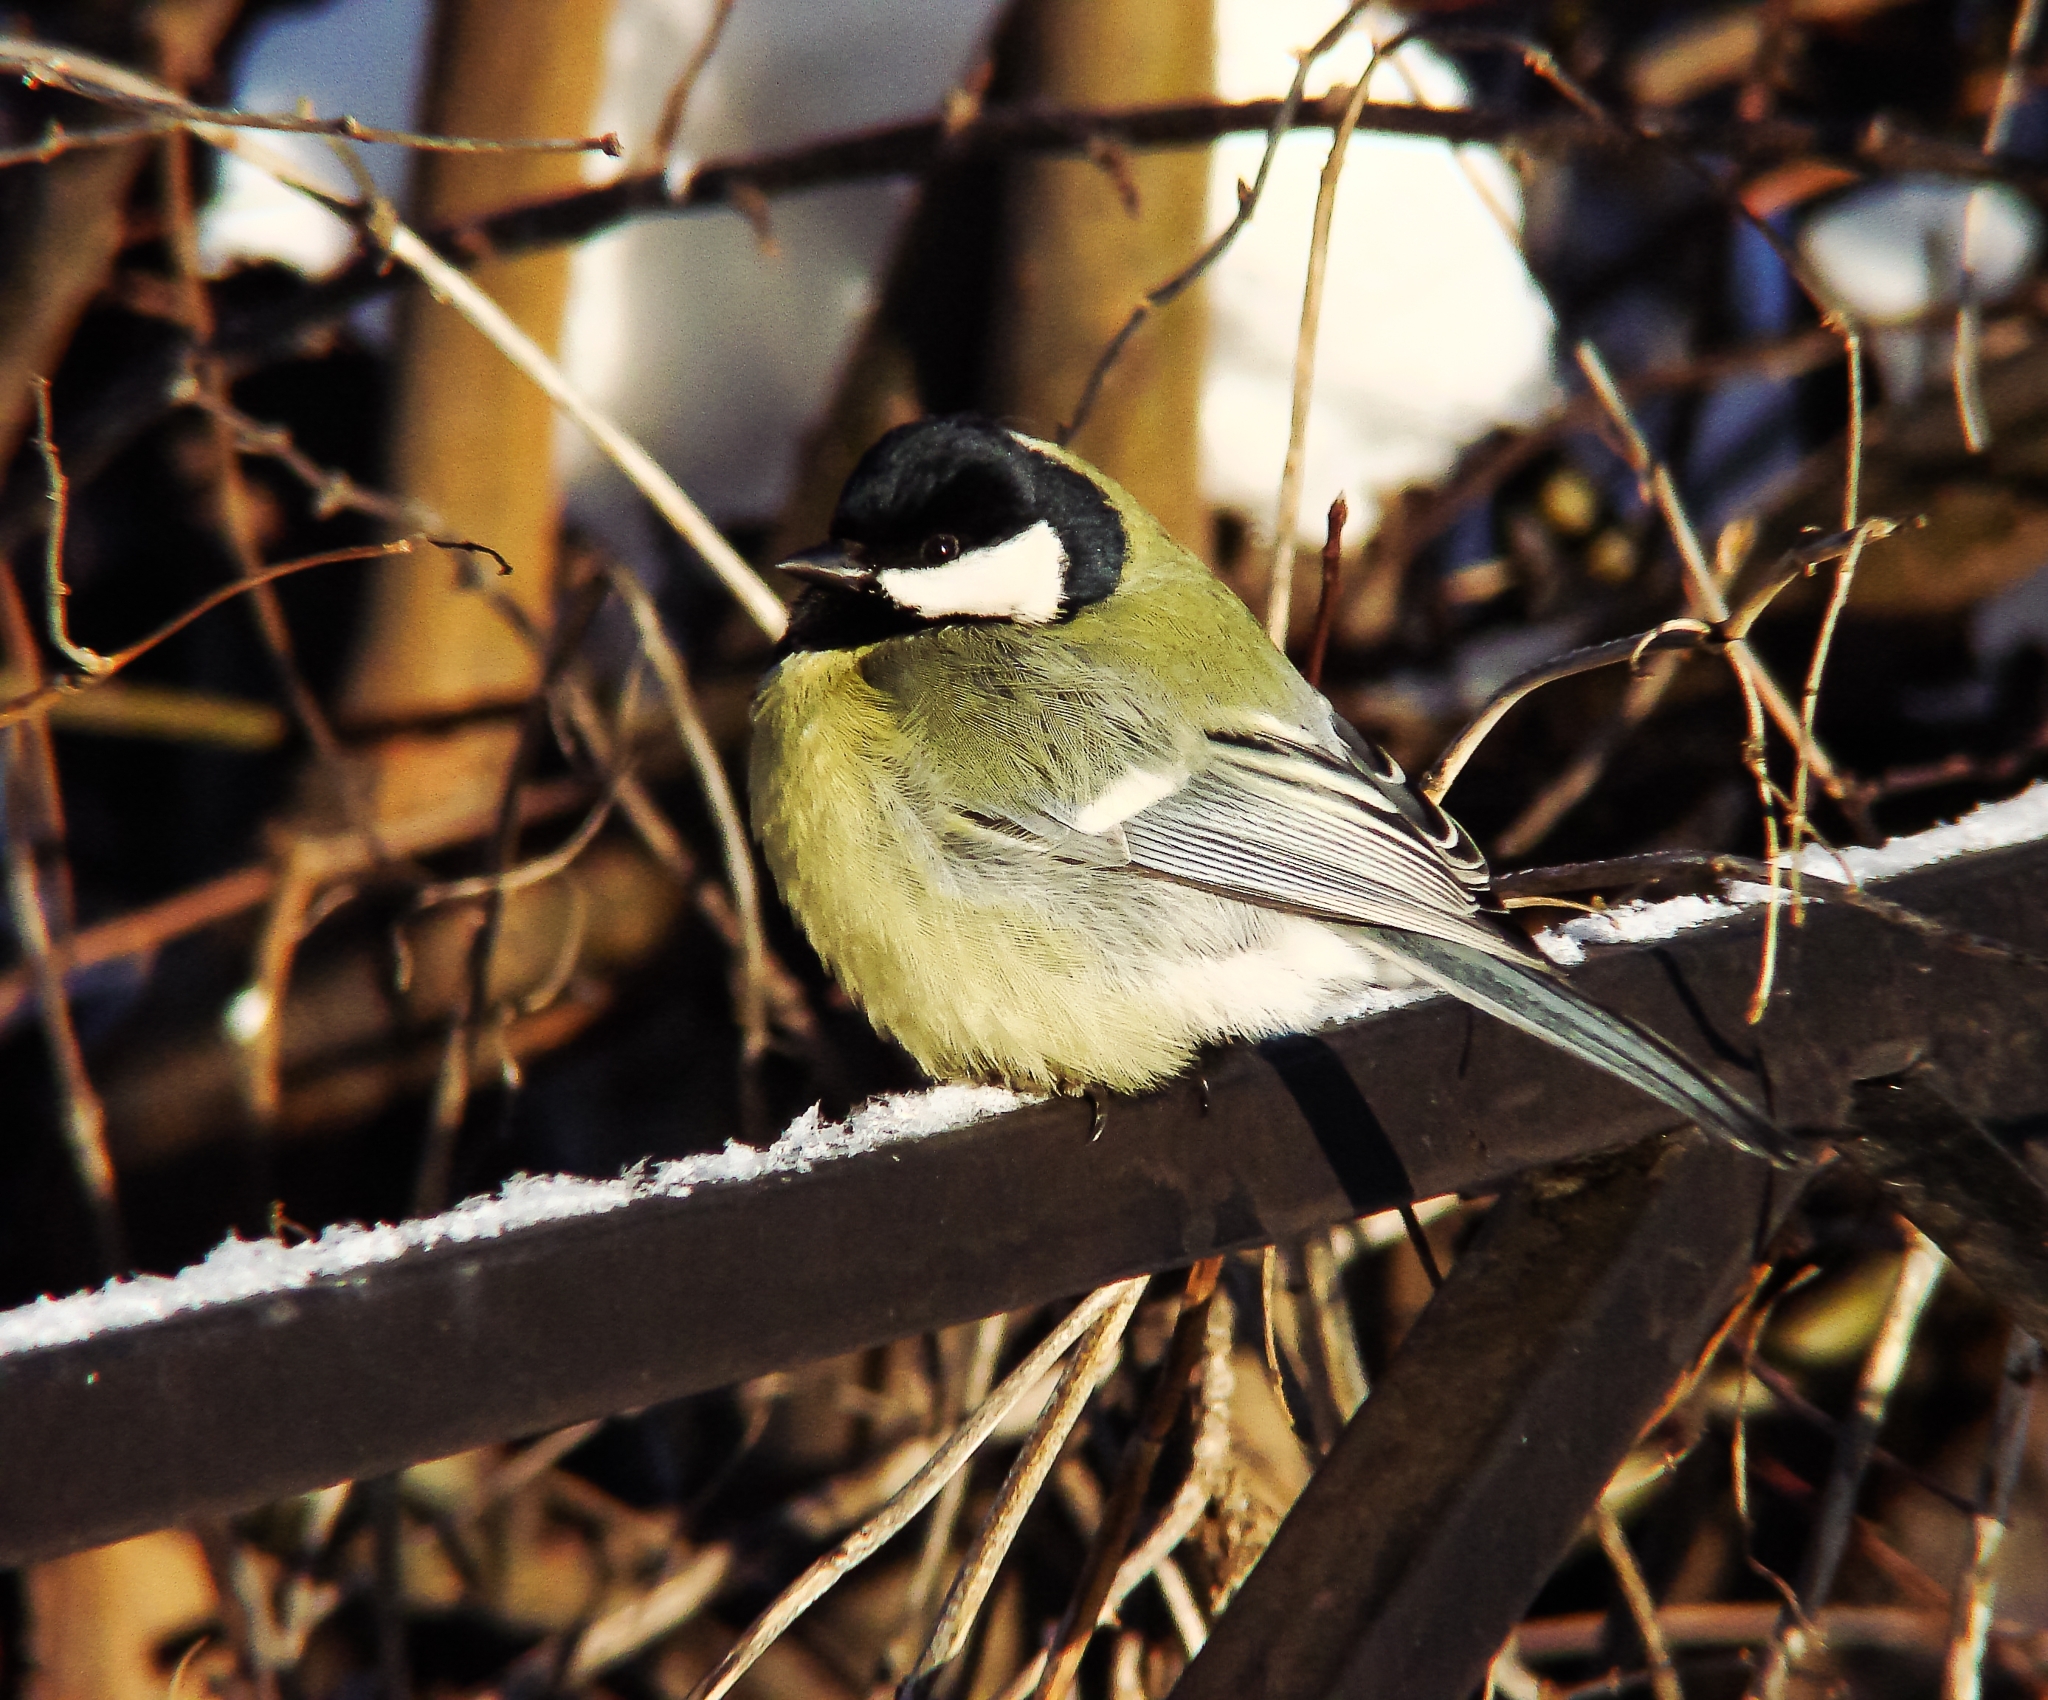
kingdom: Animalia
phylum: Chordata
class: Aves
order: Passeriformes
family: Paridae
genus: Parus
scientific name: Parus major
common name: Great tit
